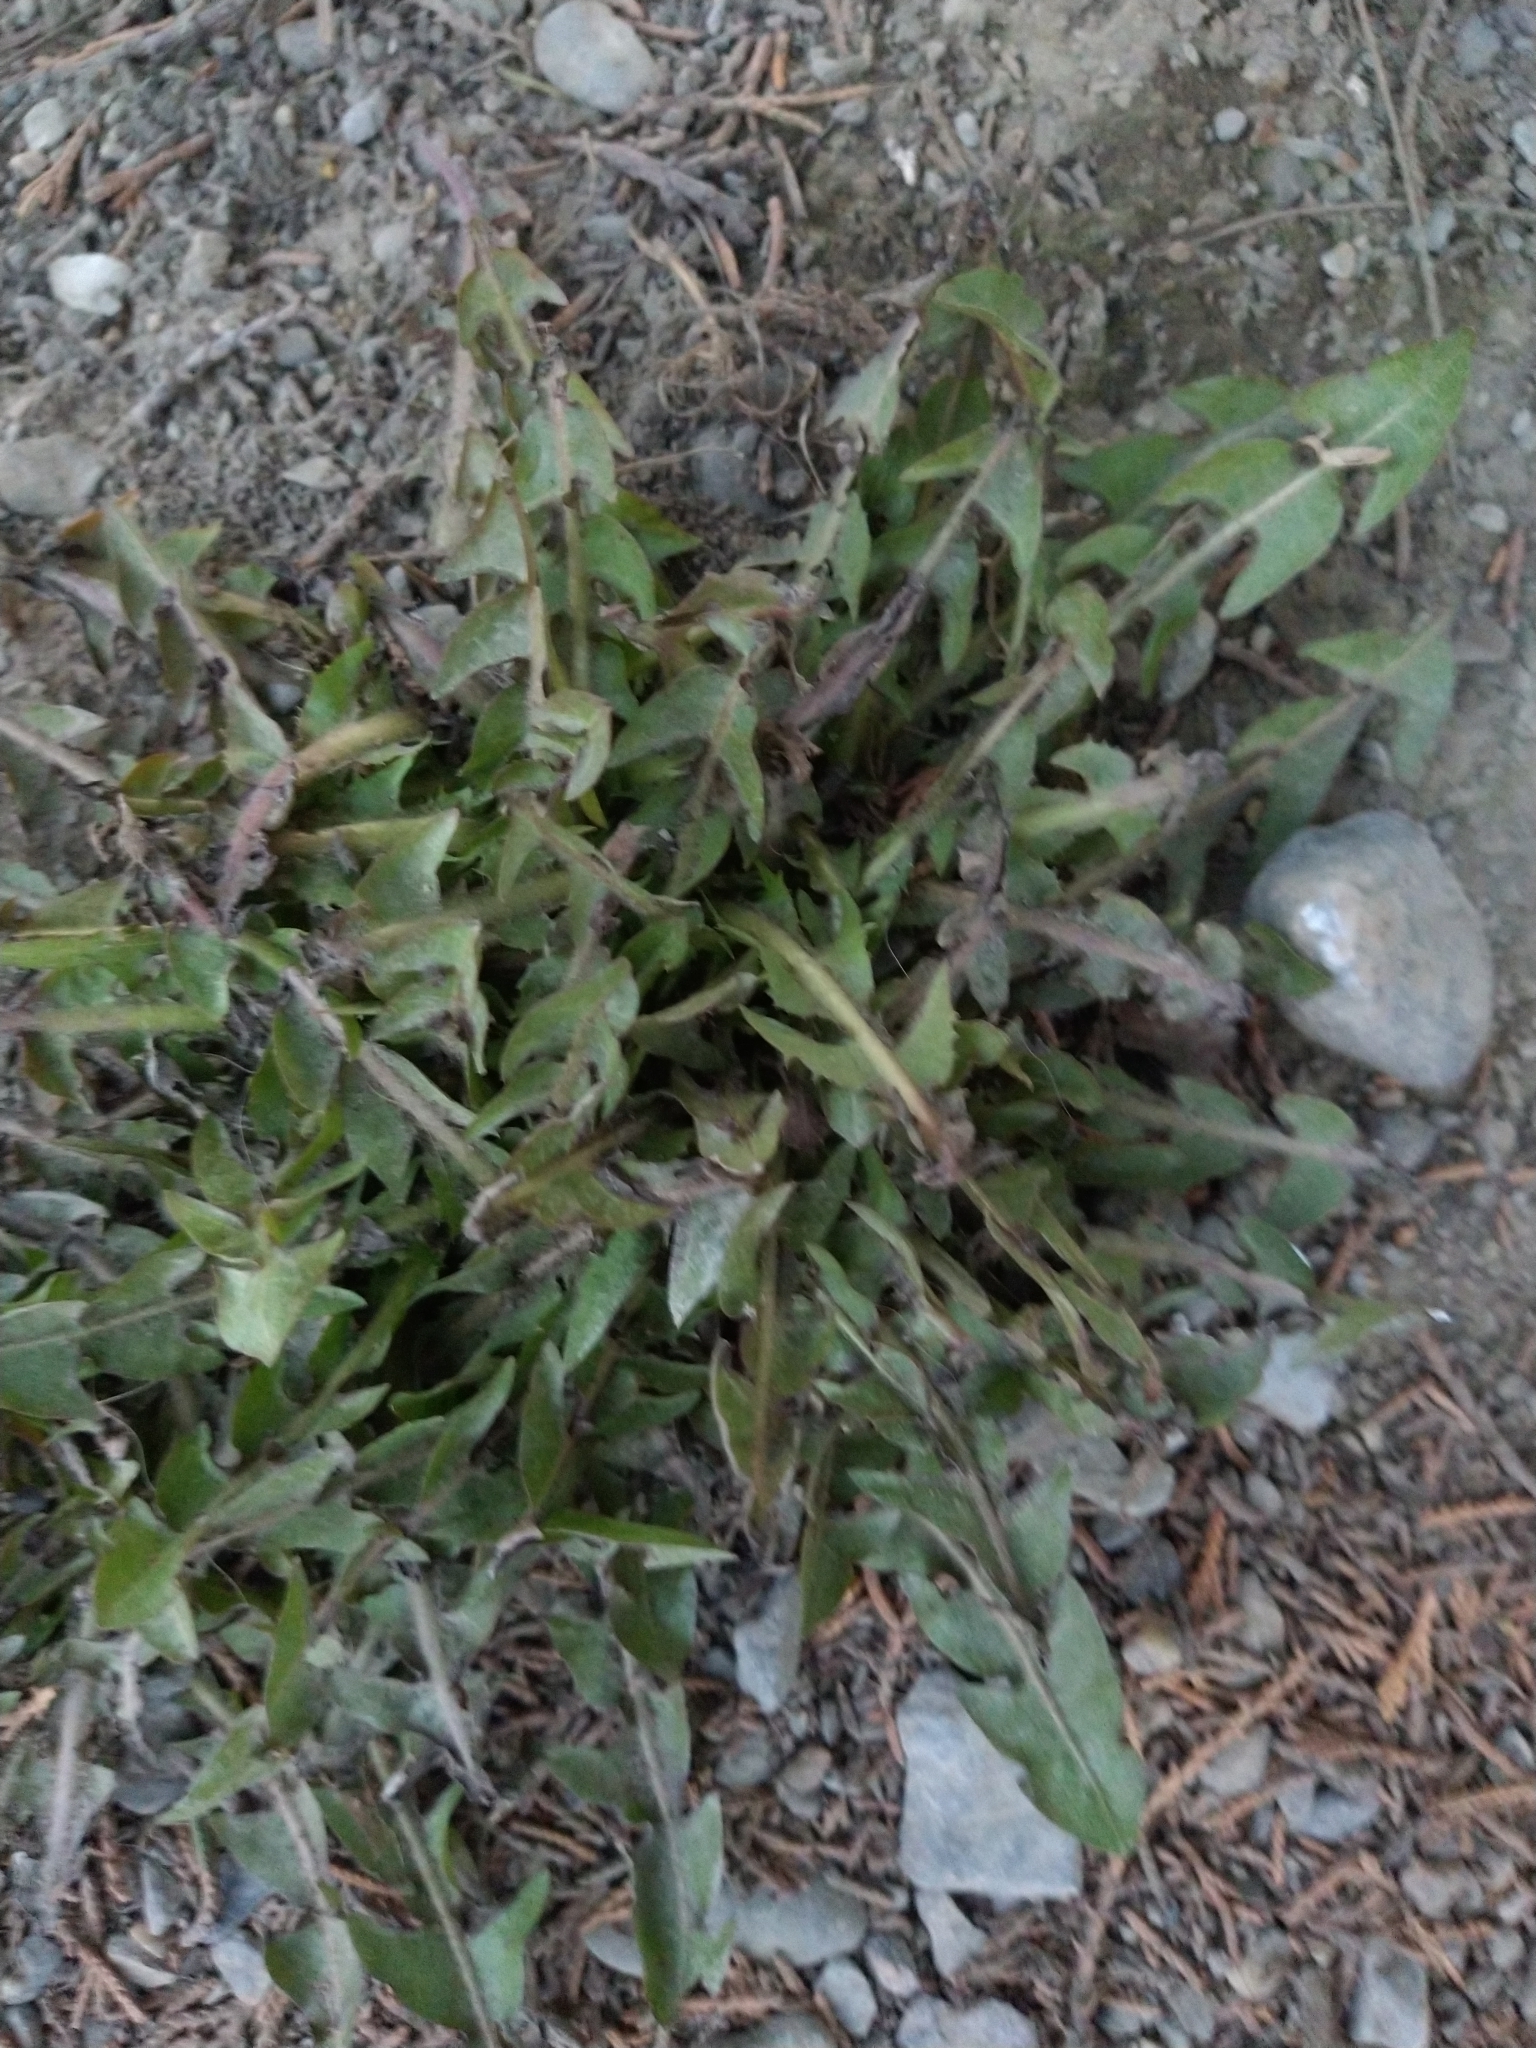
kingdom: Plantae
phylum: Tracheophyta
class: Magnoliopsida
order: Asterales
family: Asteraceae
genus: Taraxacum
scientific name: Taraxacum officinale
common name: Common dandelion
